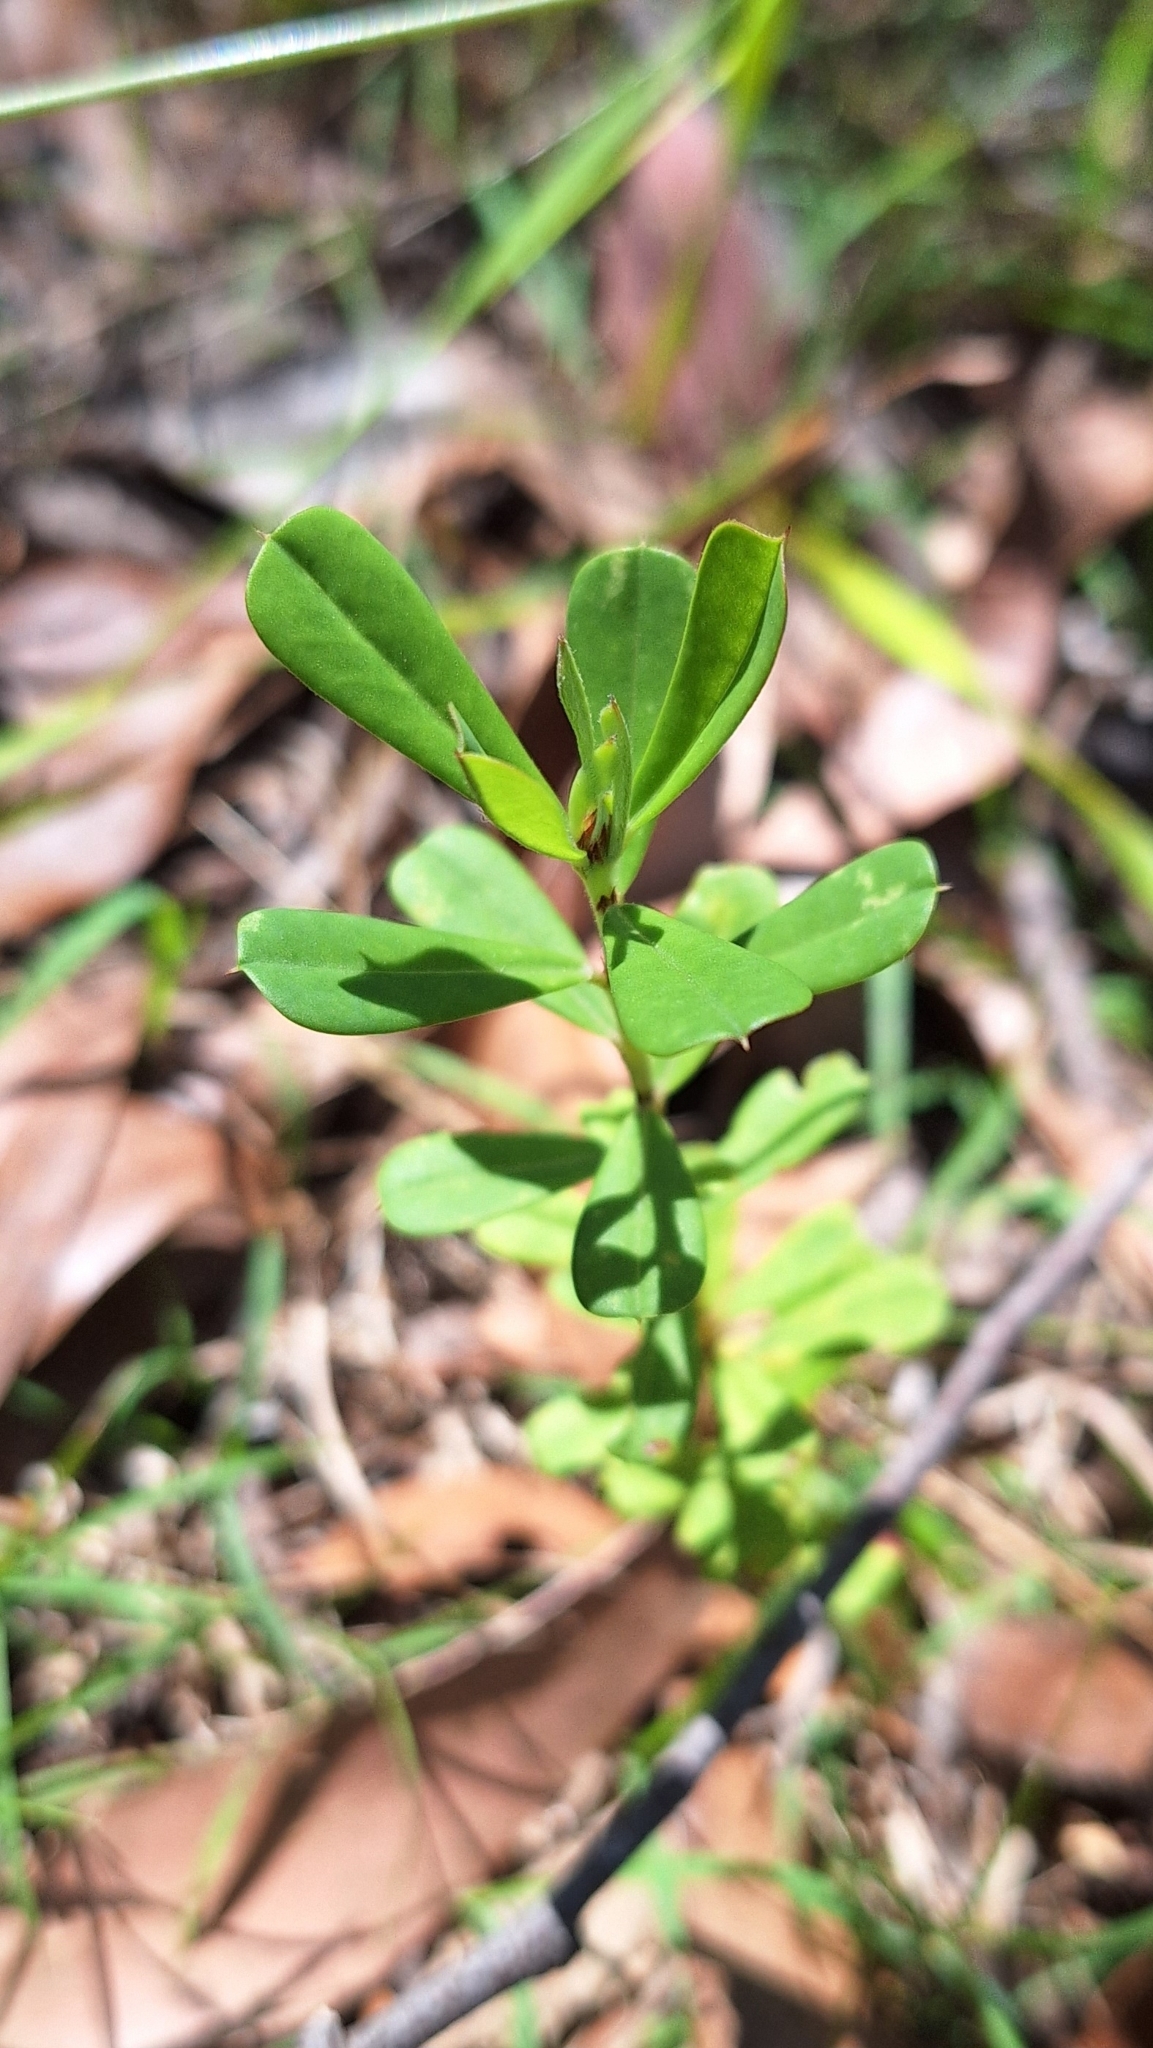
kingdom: Plantae
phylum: Tracheophyta
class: Magnoliopsida
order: Fabales
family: Fabaceae
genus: Pultenaea
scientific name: Pultenaea daphnoides
